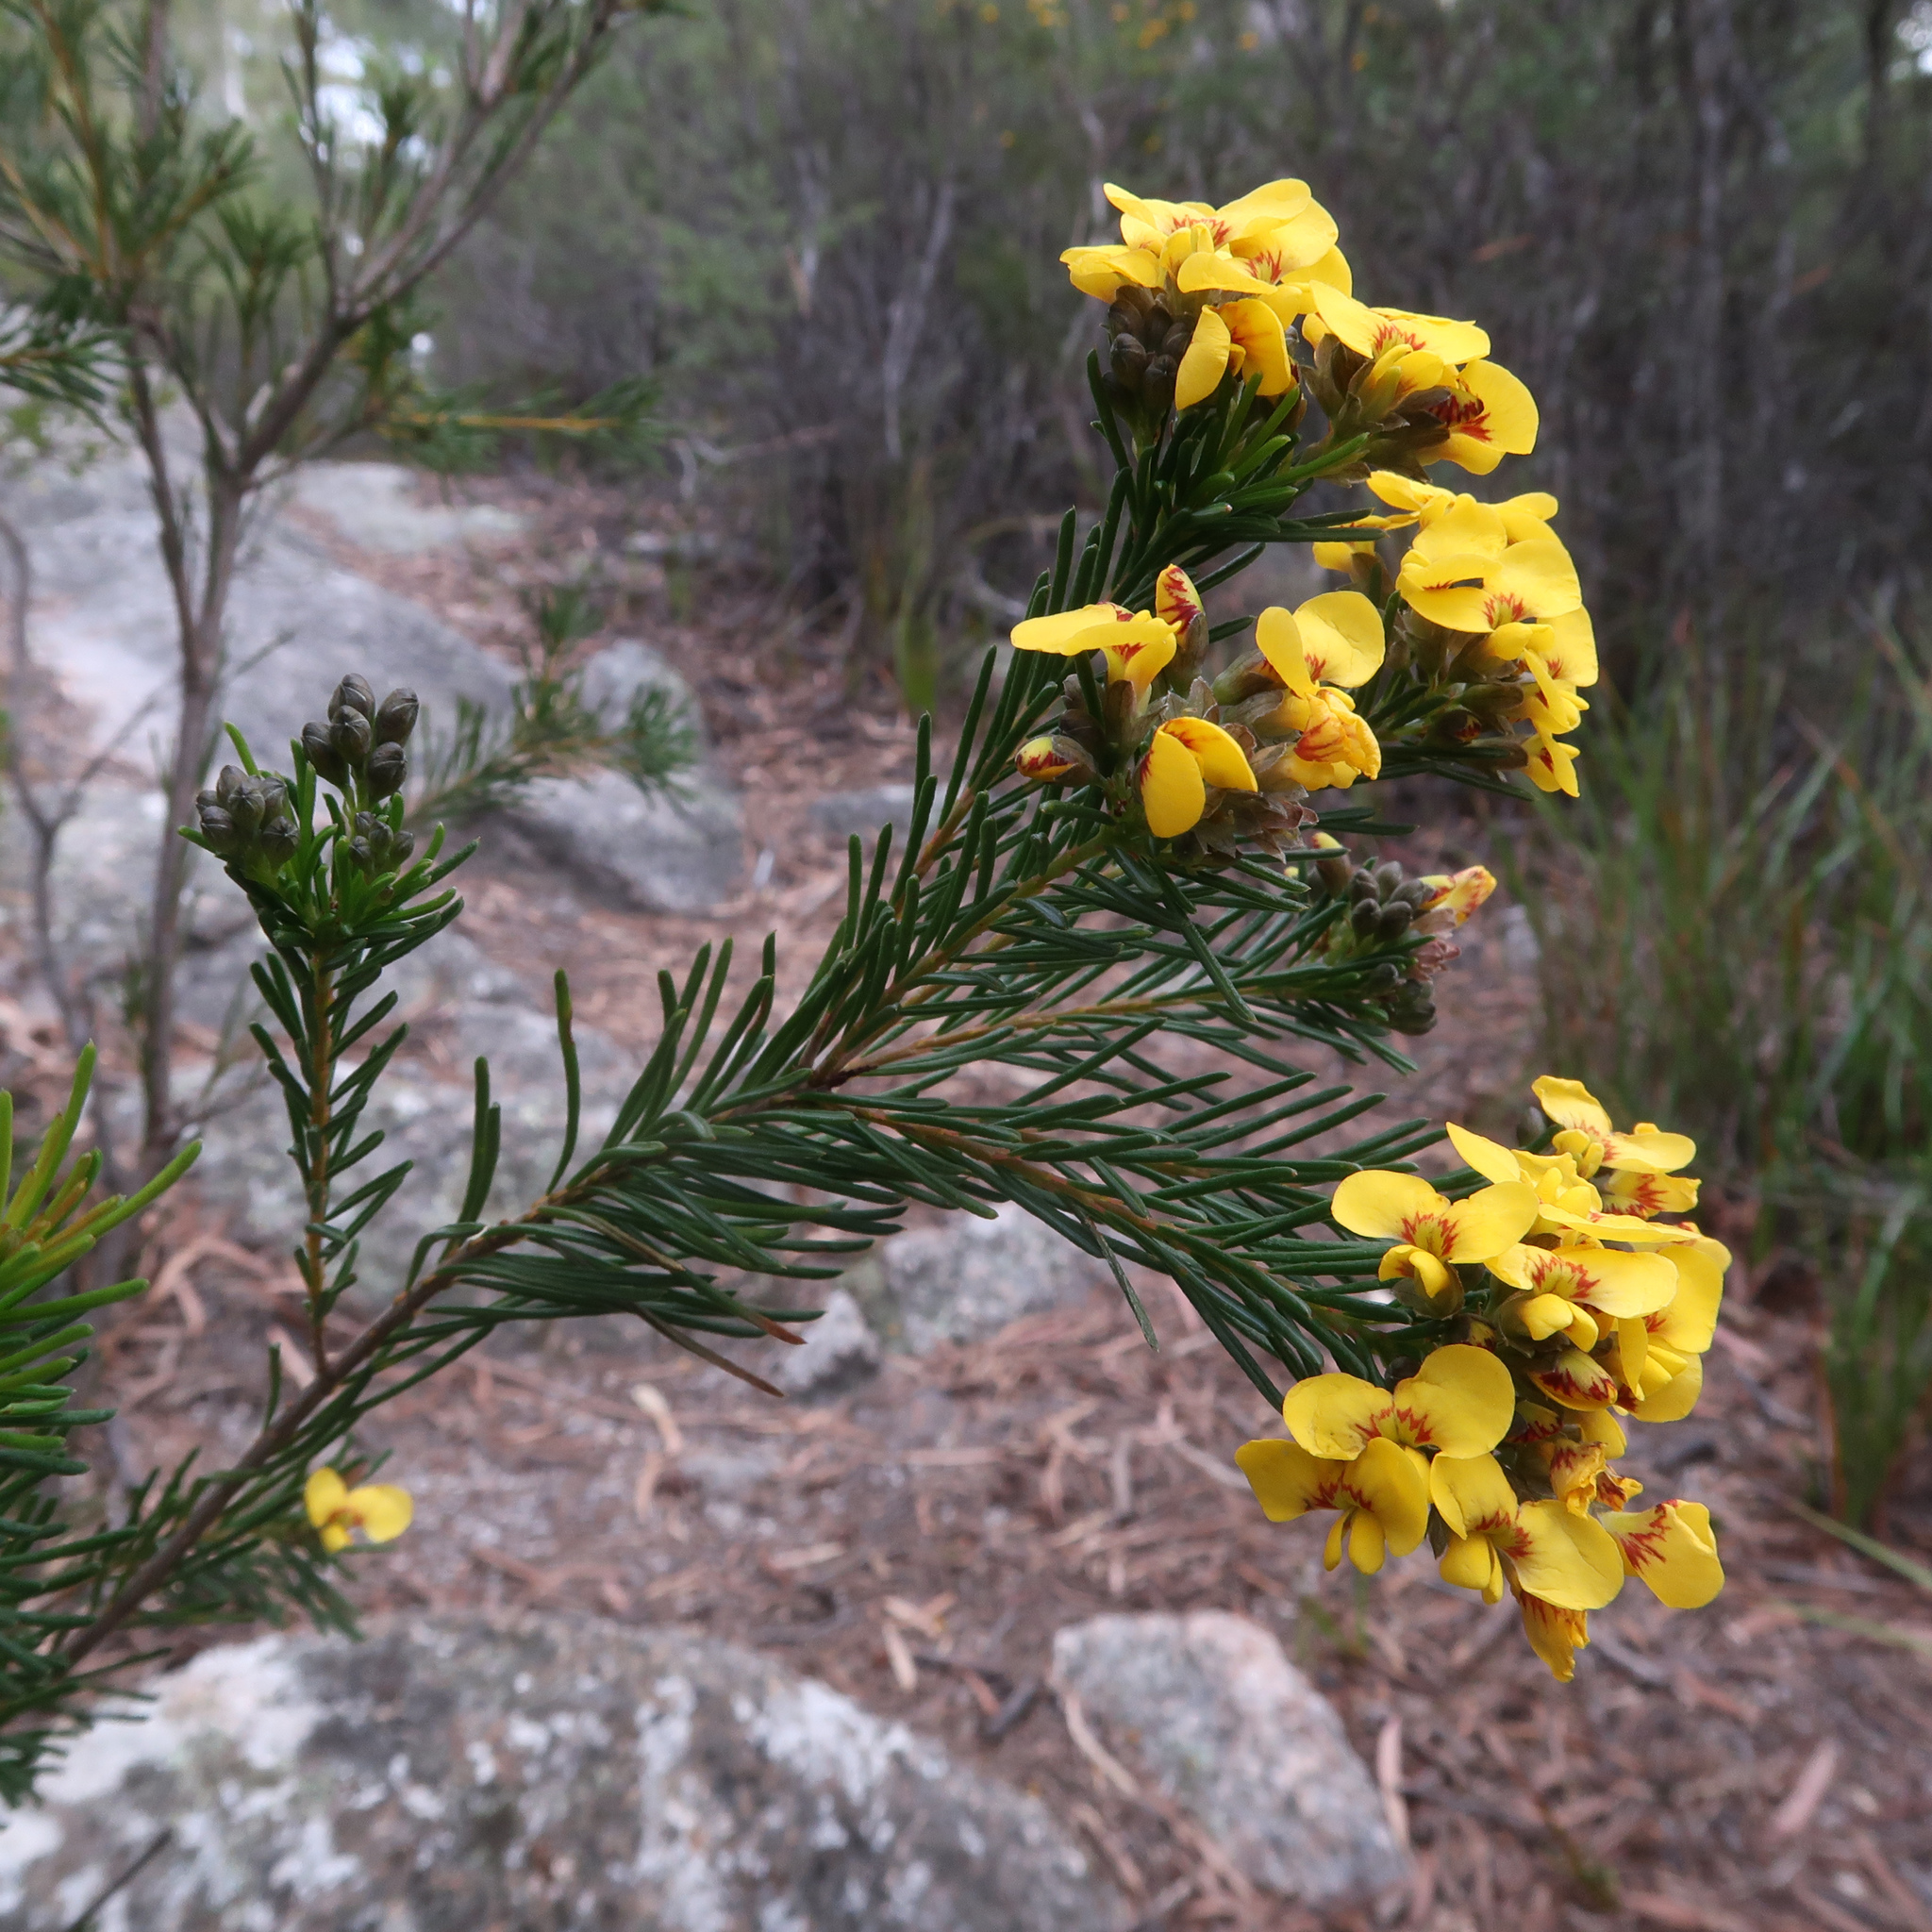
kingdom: Plantae
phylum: Tracheophyta
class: Magnoliopsida
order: Fabales
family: Fabaceae
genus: Dillwynia
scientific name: Dillwynia glaberrima
